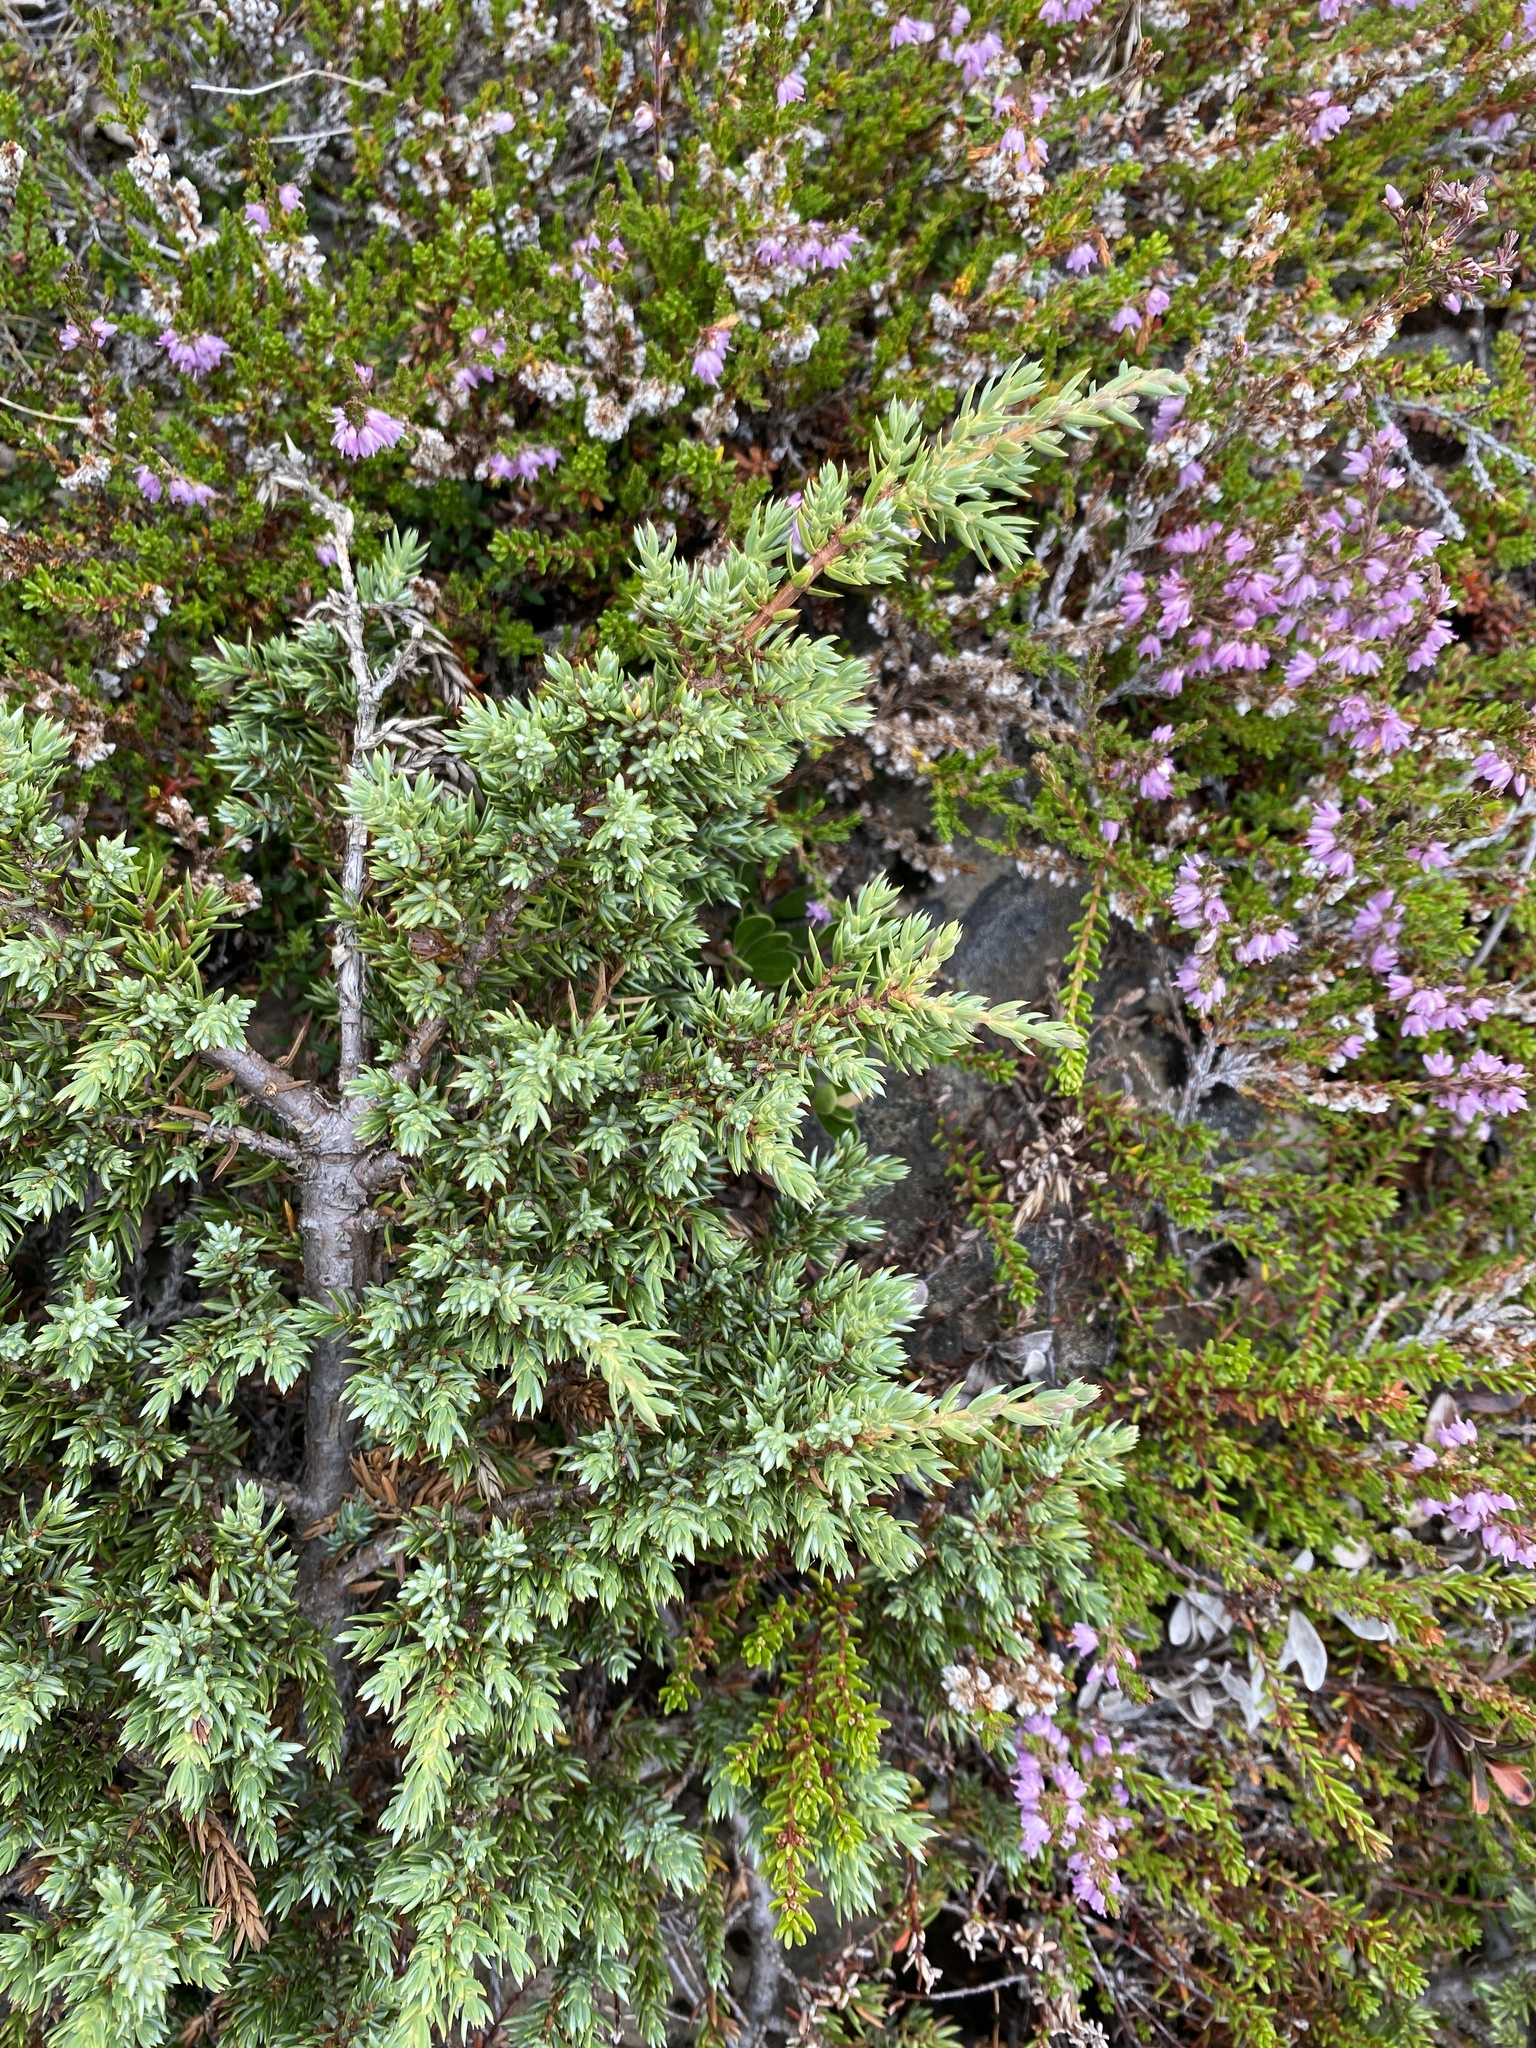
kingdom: Plantae
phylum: Tracheophyta
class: Pinopsida
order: Pinales
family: Cupressaceae
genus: Juniperus
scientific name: Juniperus communis
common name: Common juniper
